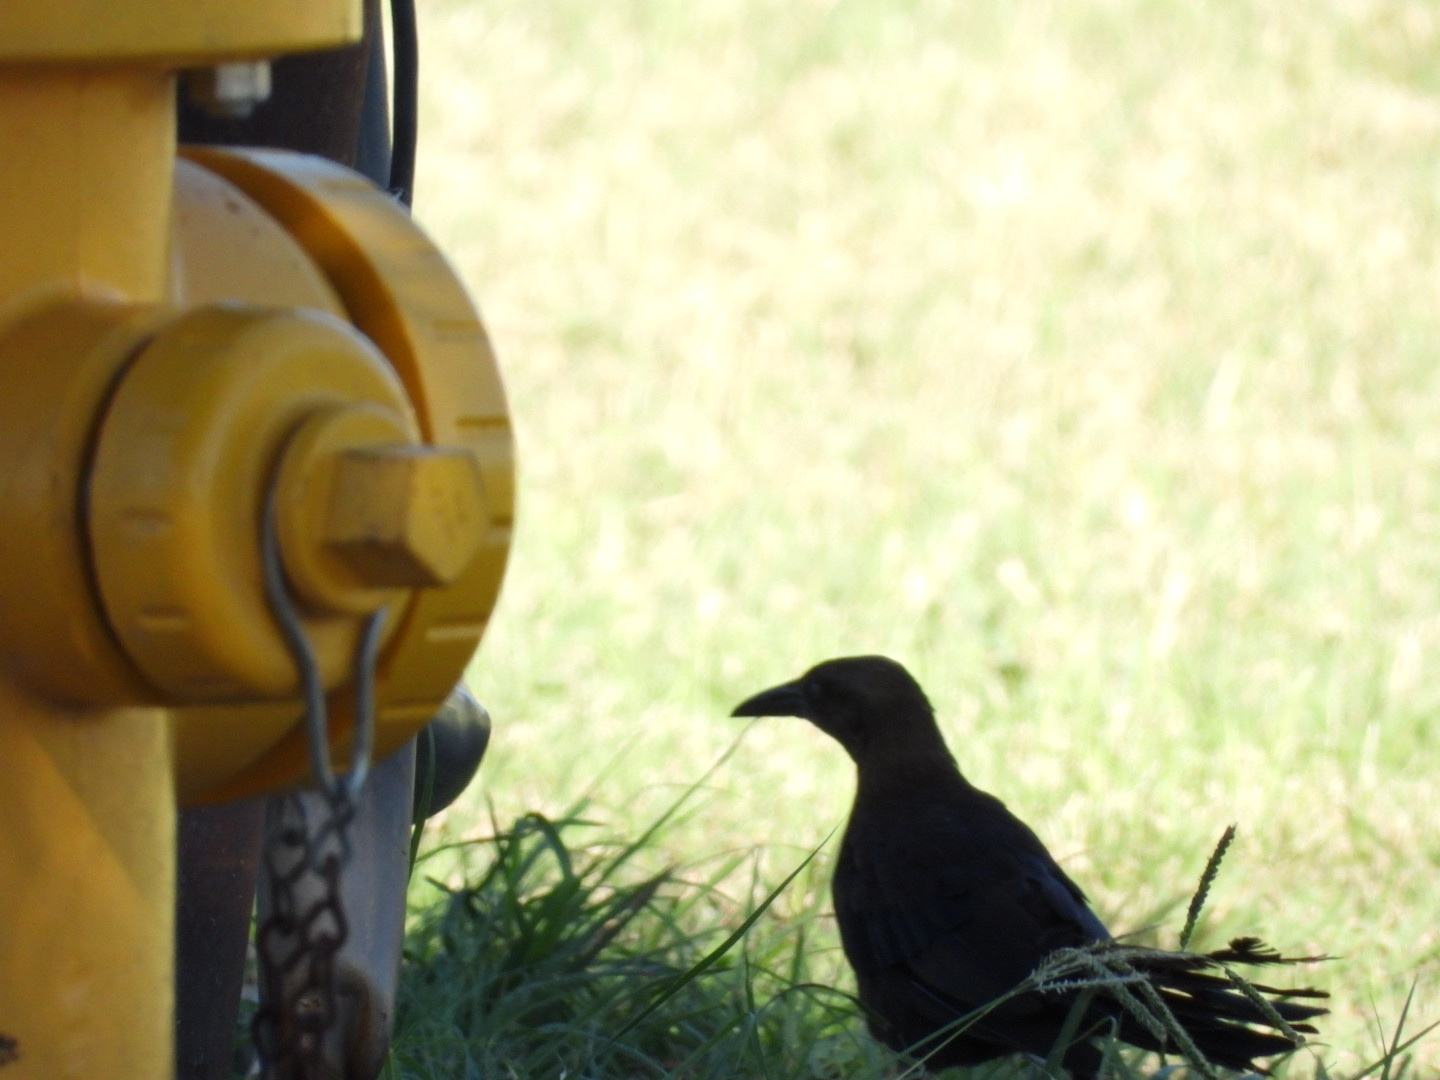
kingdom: Animalia
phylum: Chordata
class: Aves
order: Passeriformes
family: Icteridae
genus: Quiscalus
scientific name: Quiscalus mexicanus
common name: Great-tailed grackle
